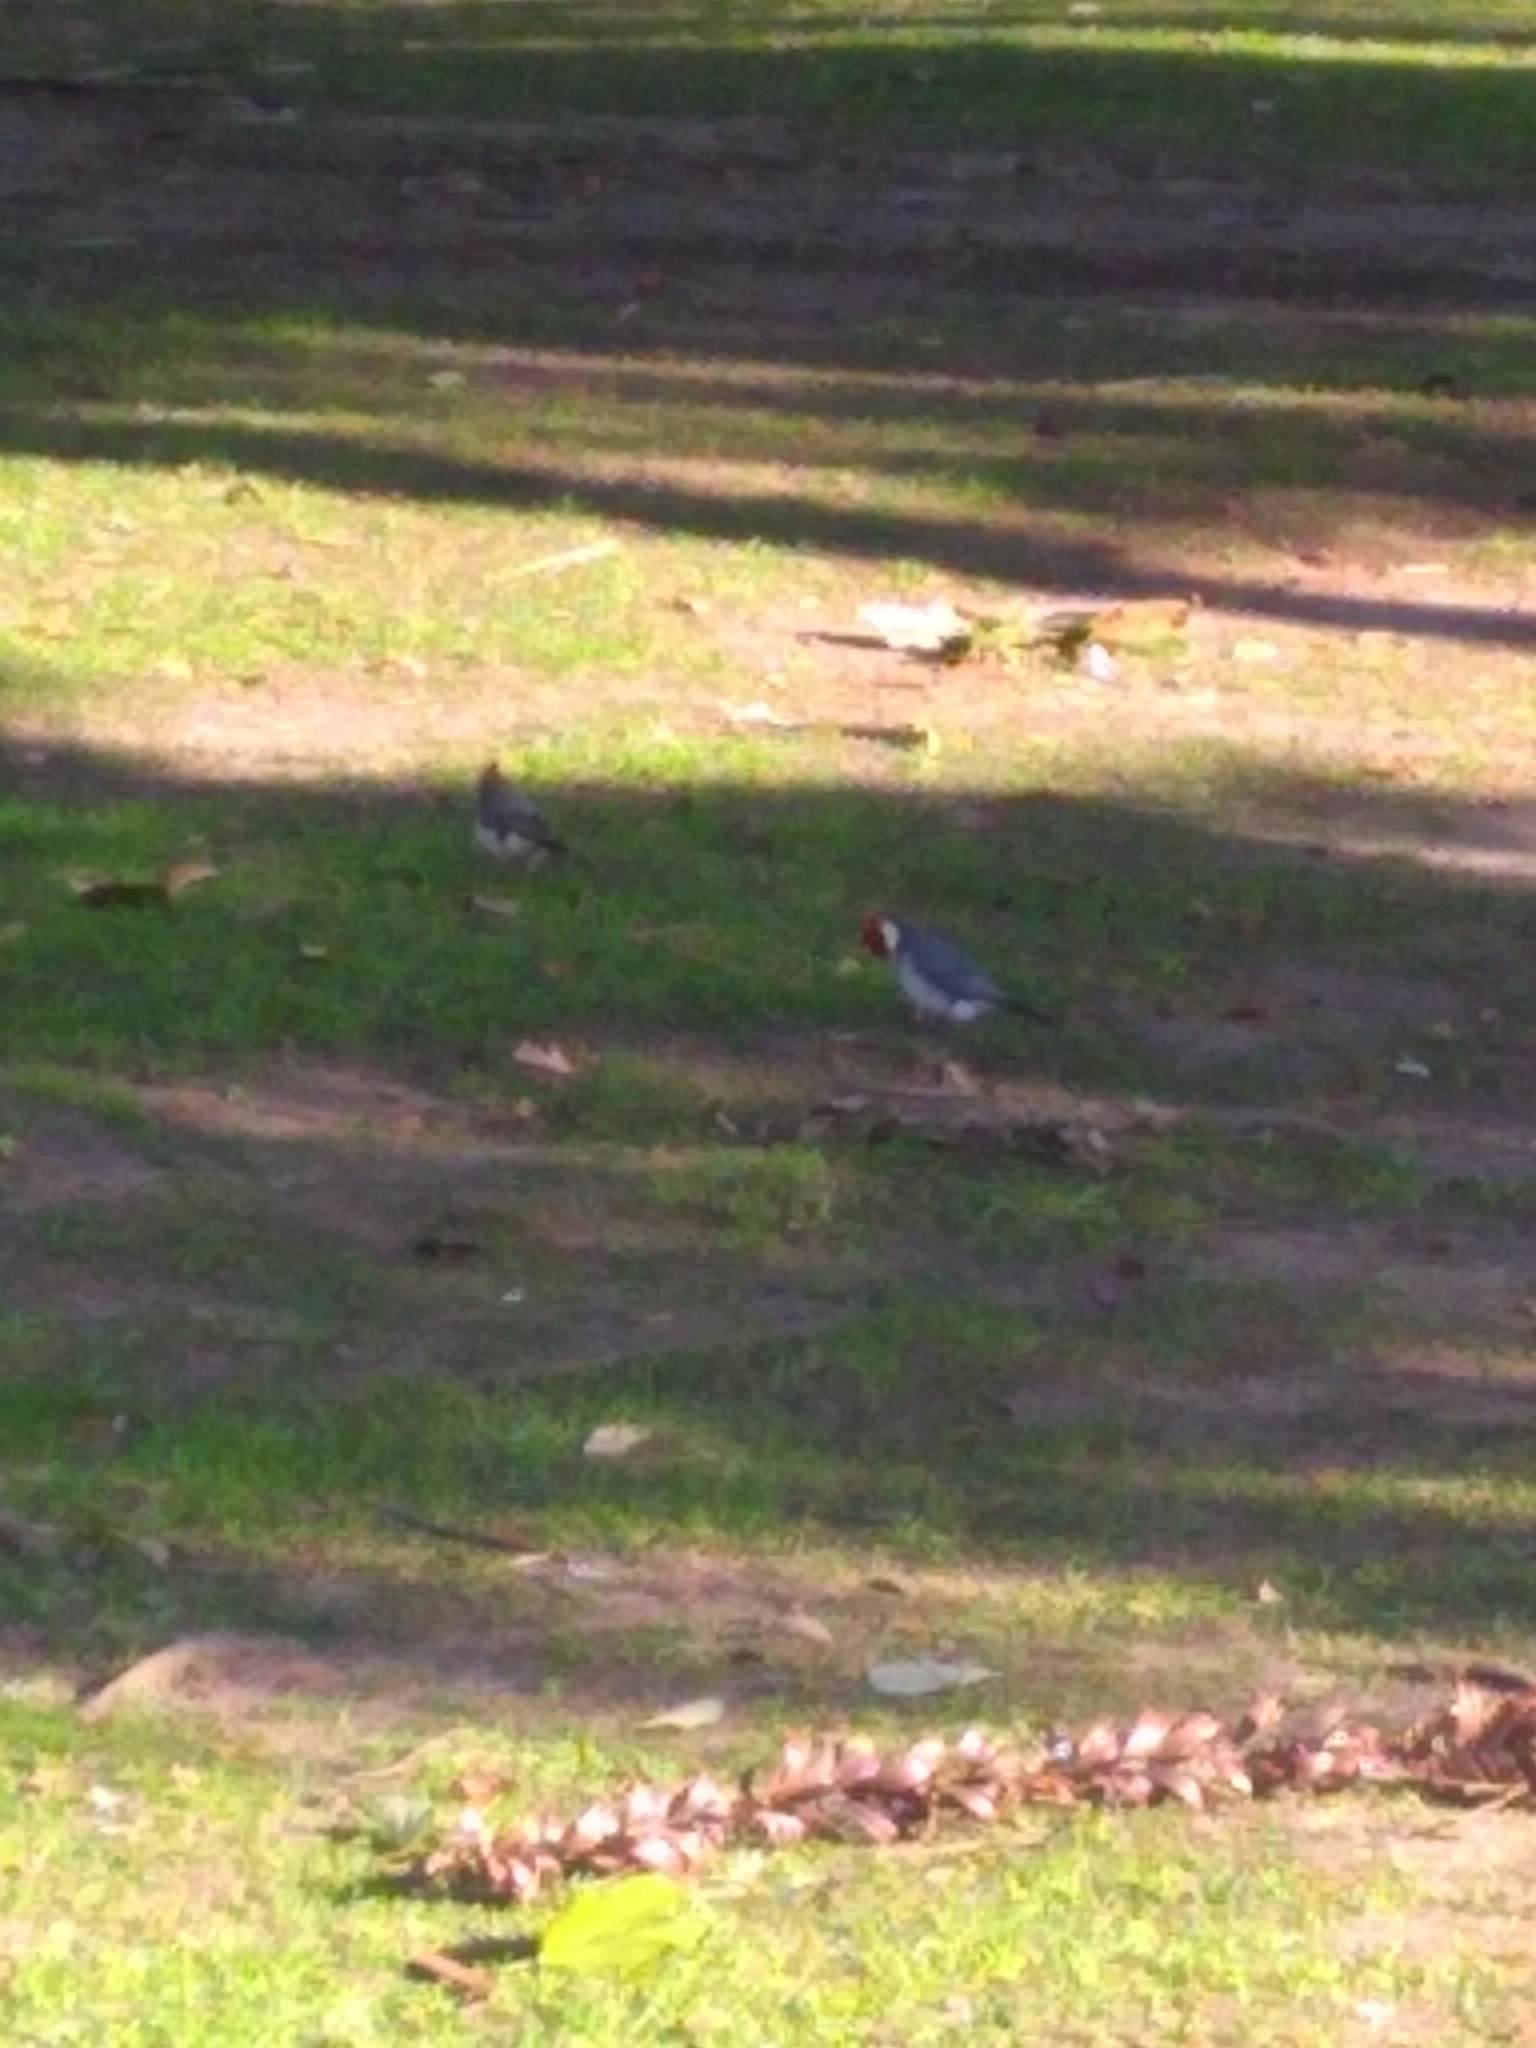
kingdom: Animalia
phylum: Chordata
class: Aves
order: Passeriformes
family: Thraupidae
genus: Paroaria
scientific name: Paroaria coronata
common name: Red-crested cardinal
